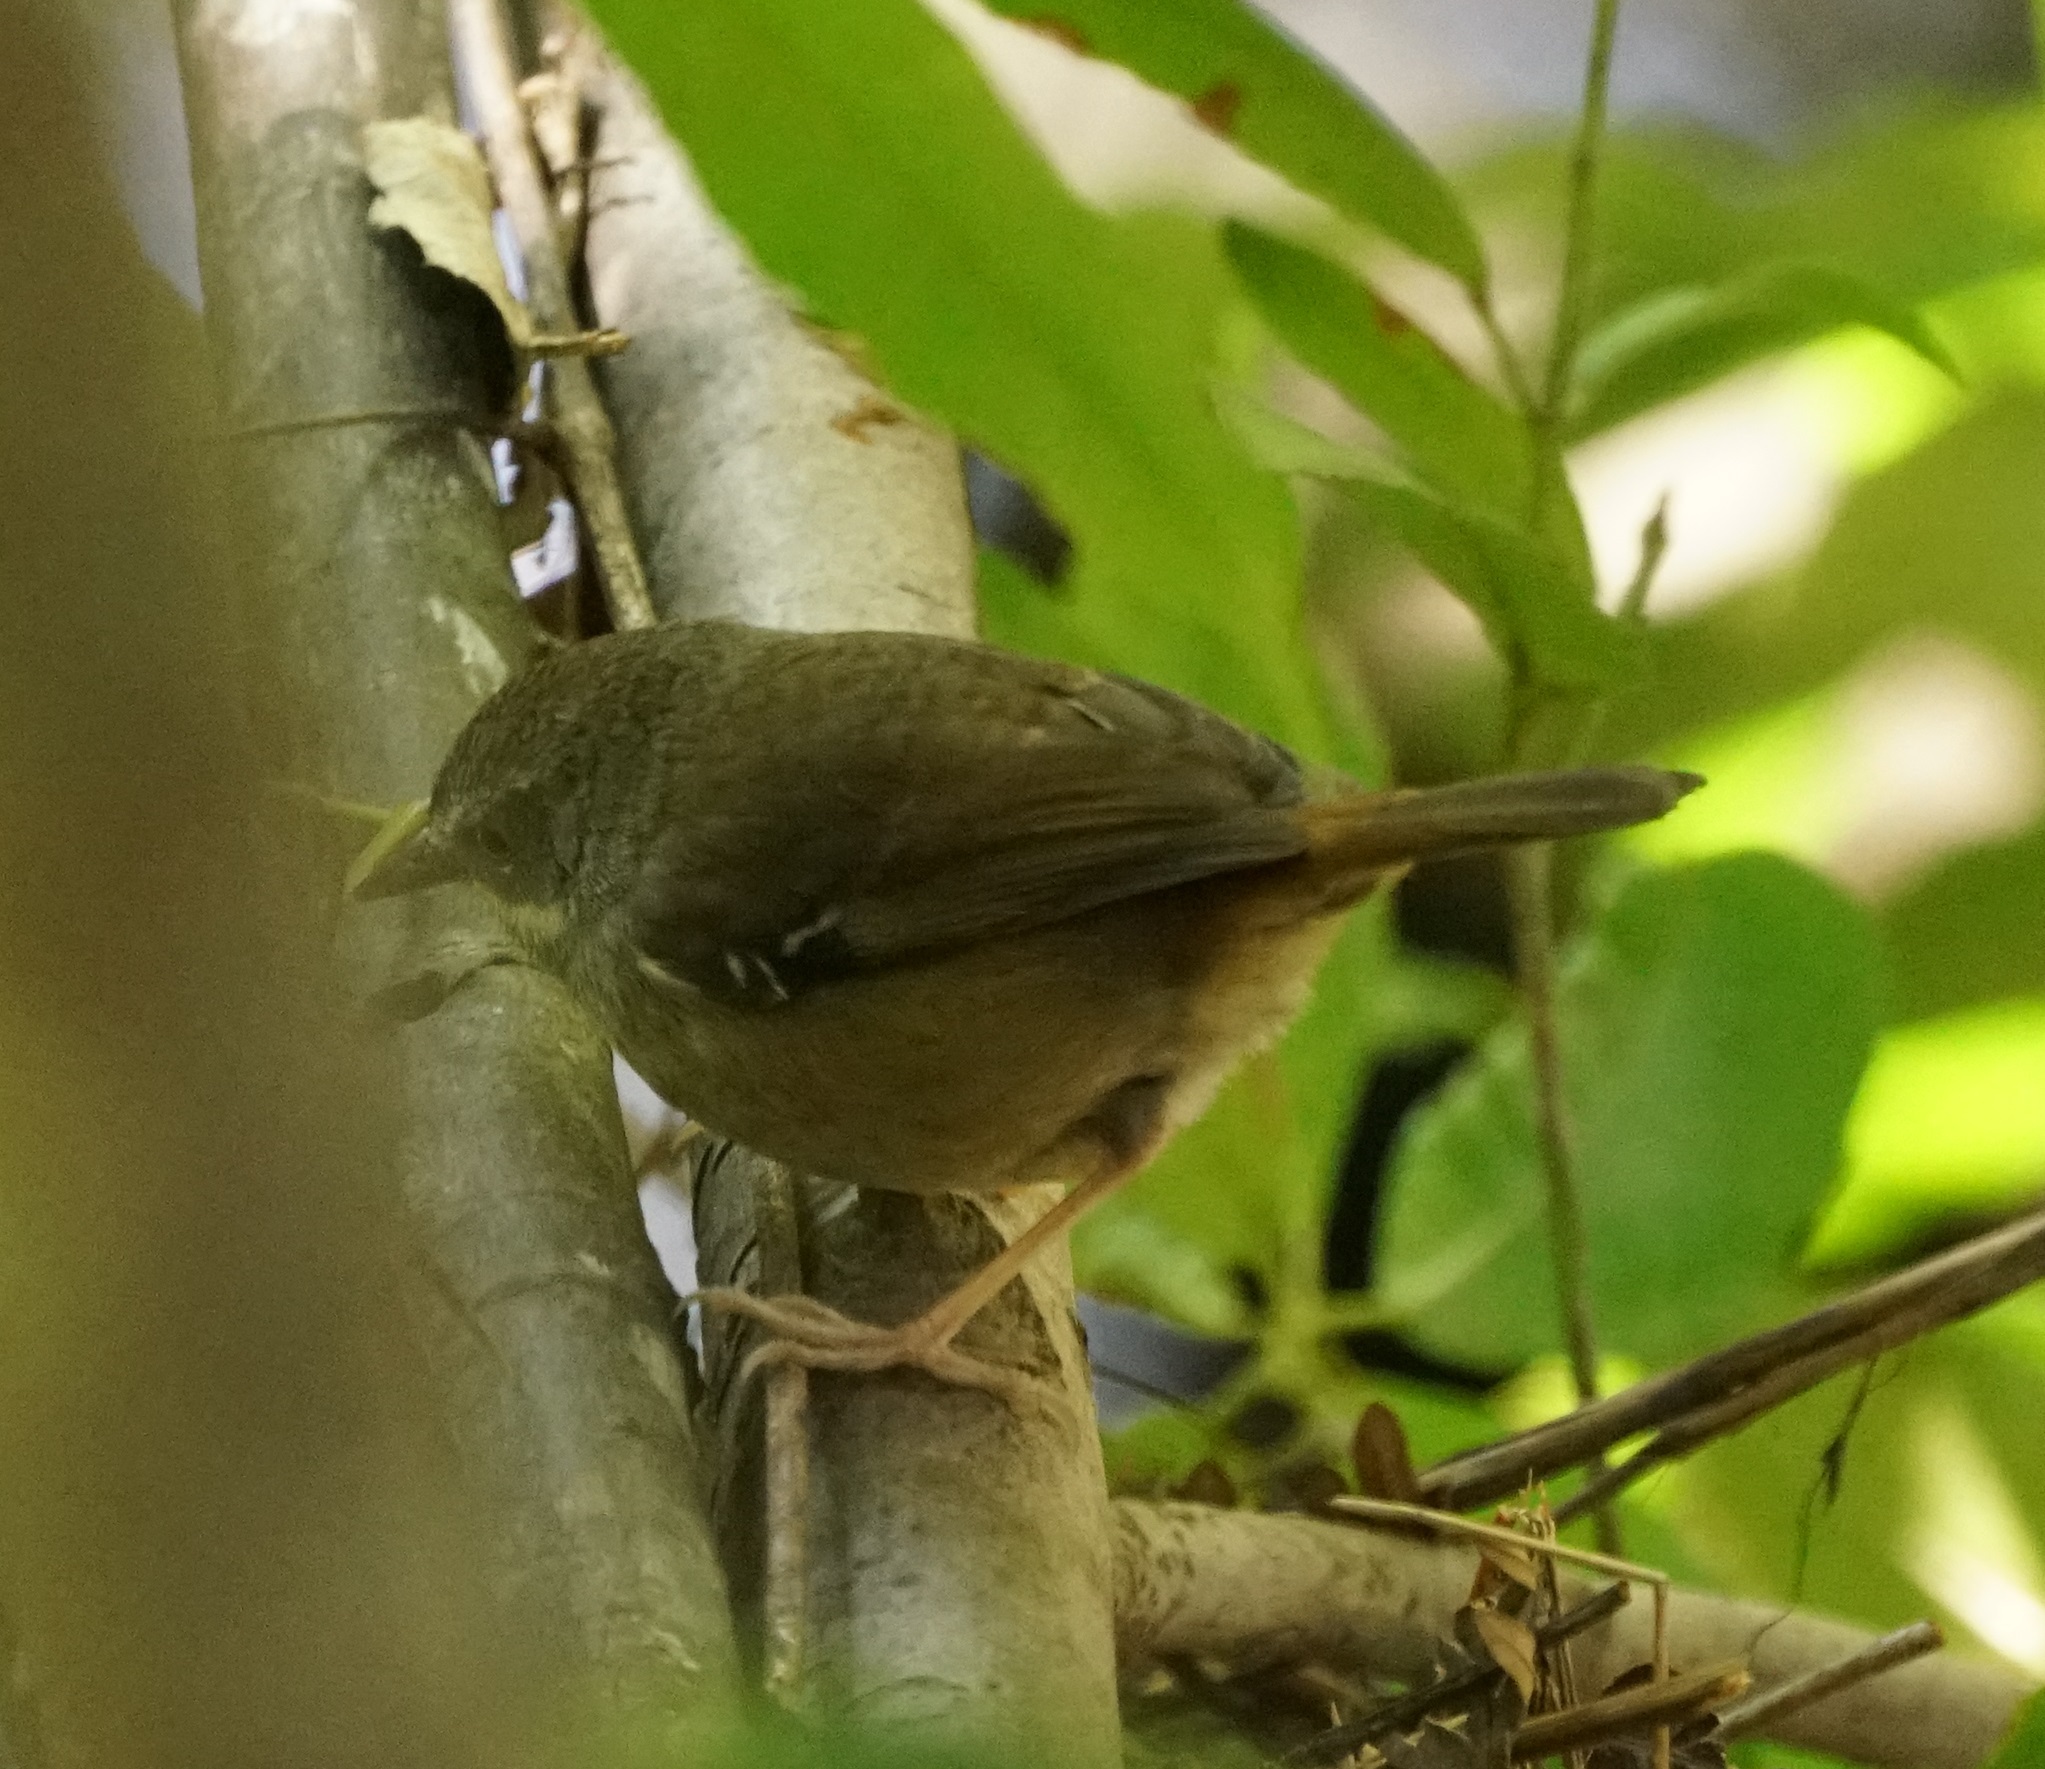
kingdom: Animalia
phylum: Chordata
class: Aves
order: Passeriformes
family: Acanthizidae
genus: Sericornis
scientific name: Sericornis frontalis
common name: White-browed scrubwren
